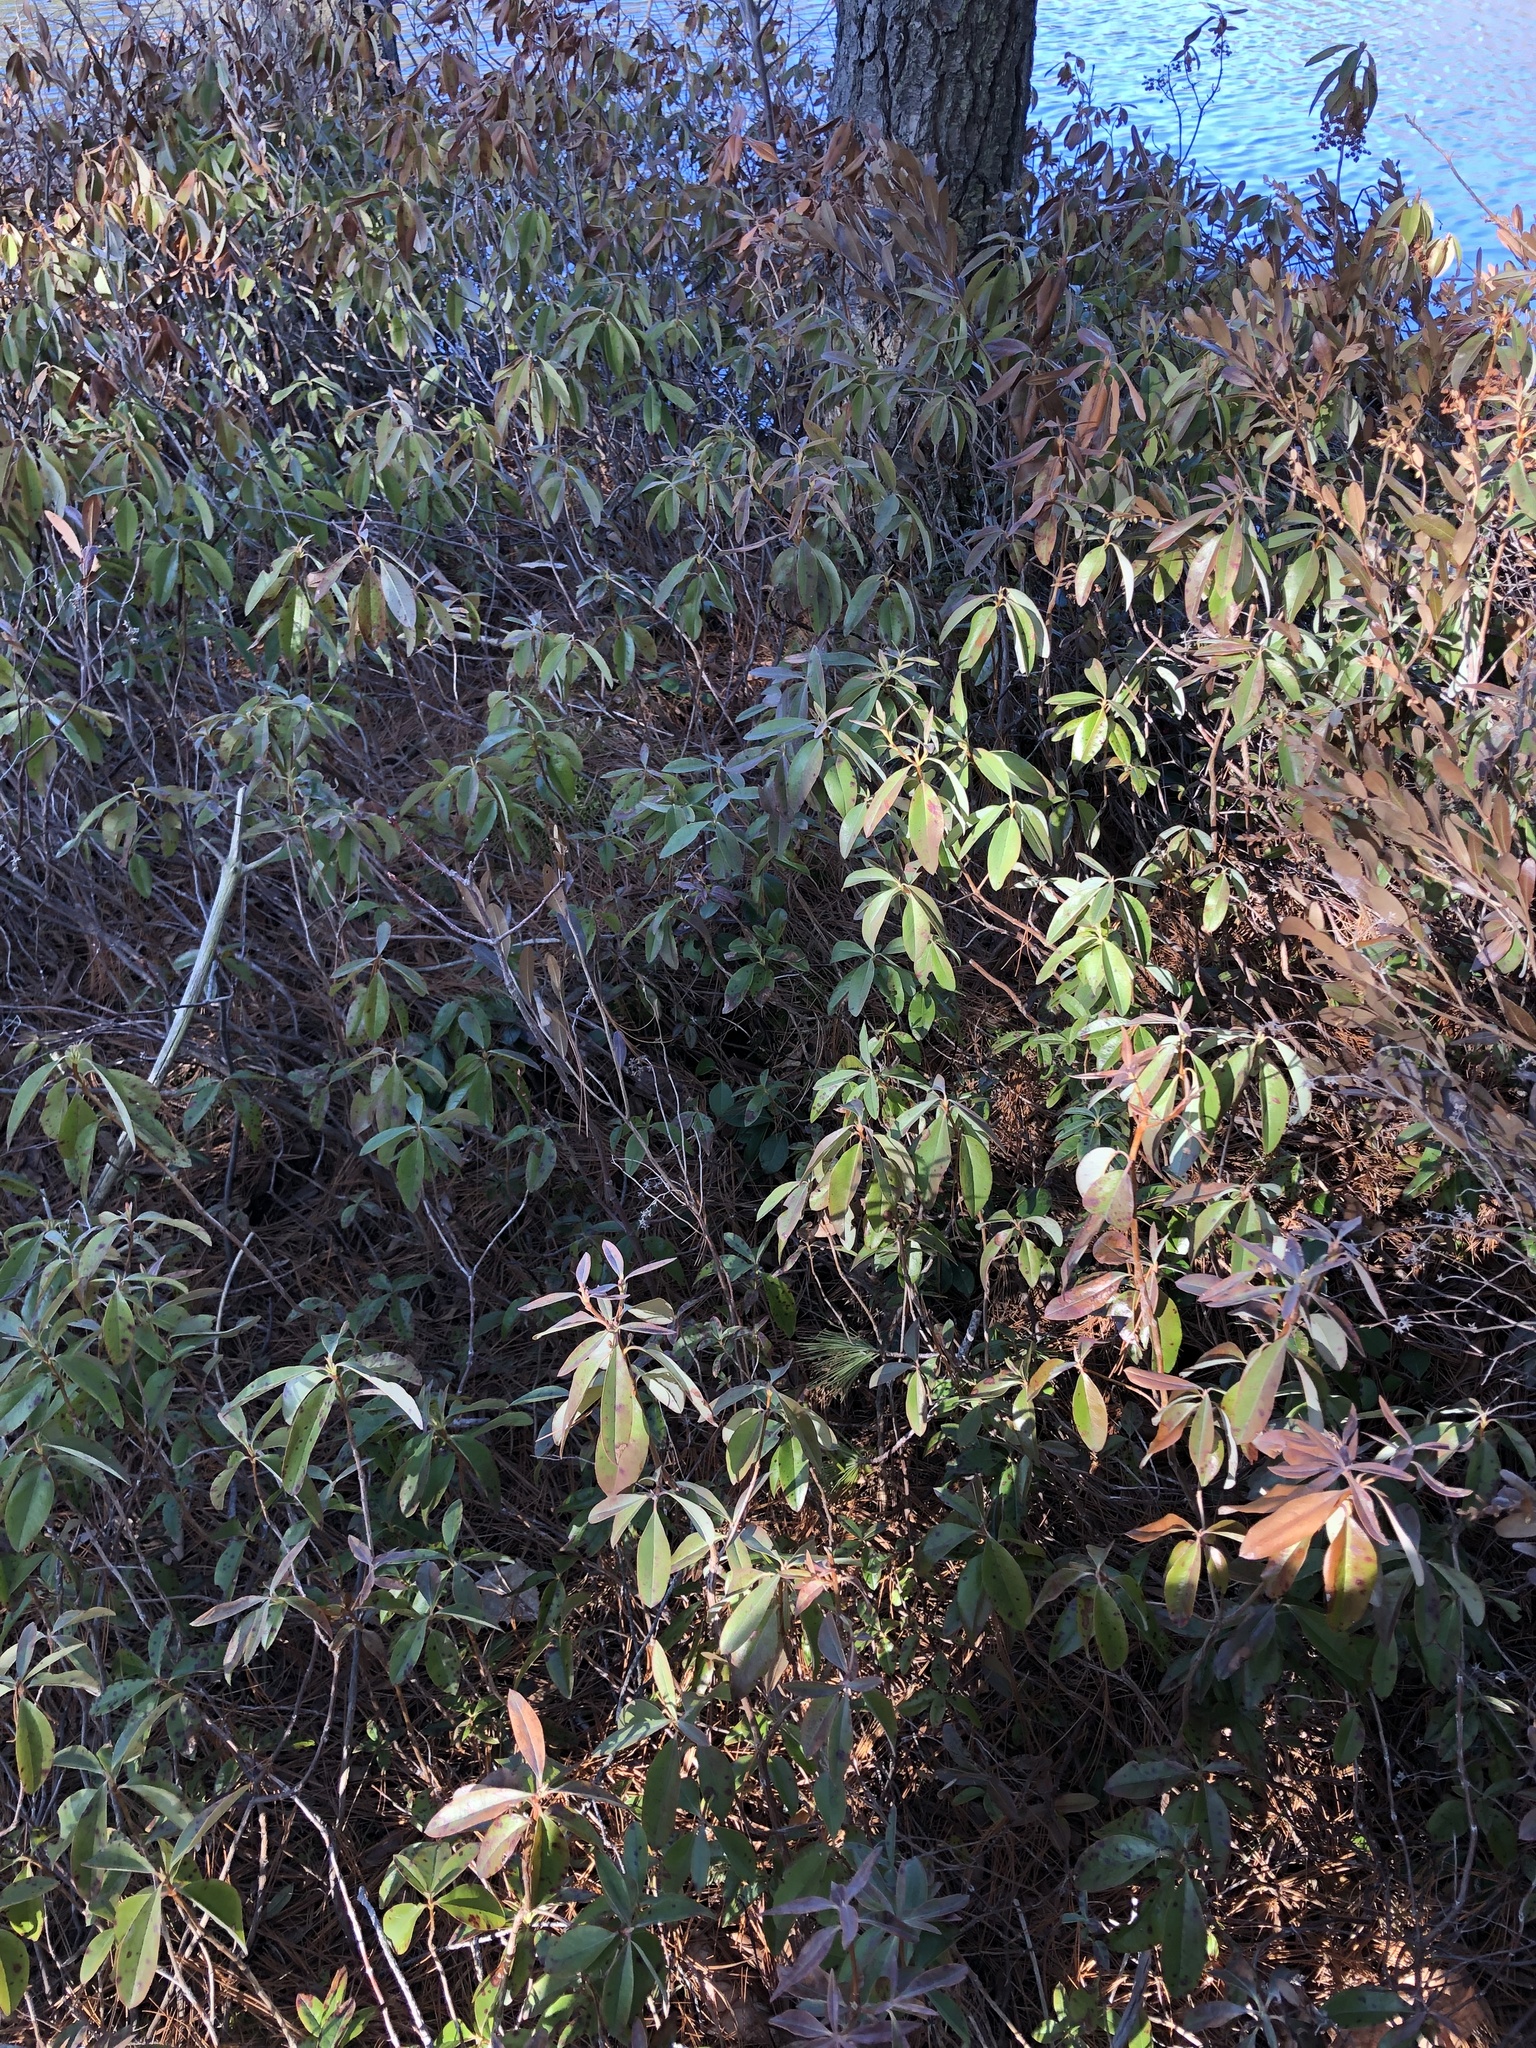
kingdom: Plantae
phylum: Tracheophyta
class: Magnoliopsida
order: Ericales
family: Ericaceae
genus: Kalmia
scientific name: Kalmia angustifolia
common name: Sheep-laurel
